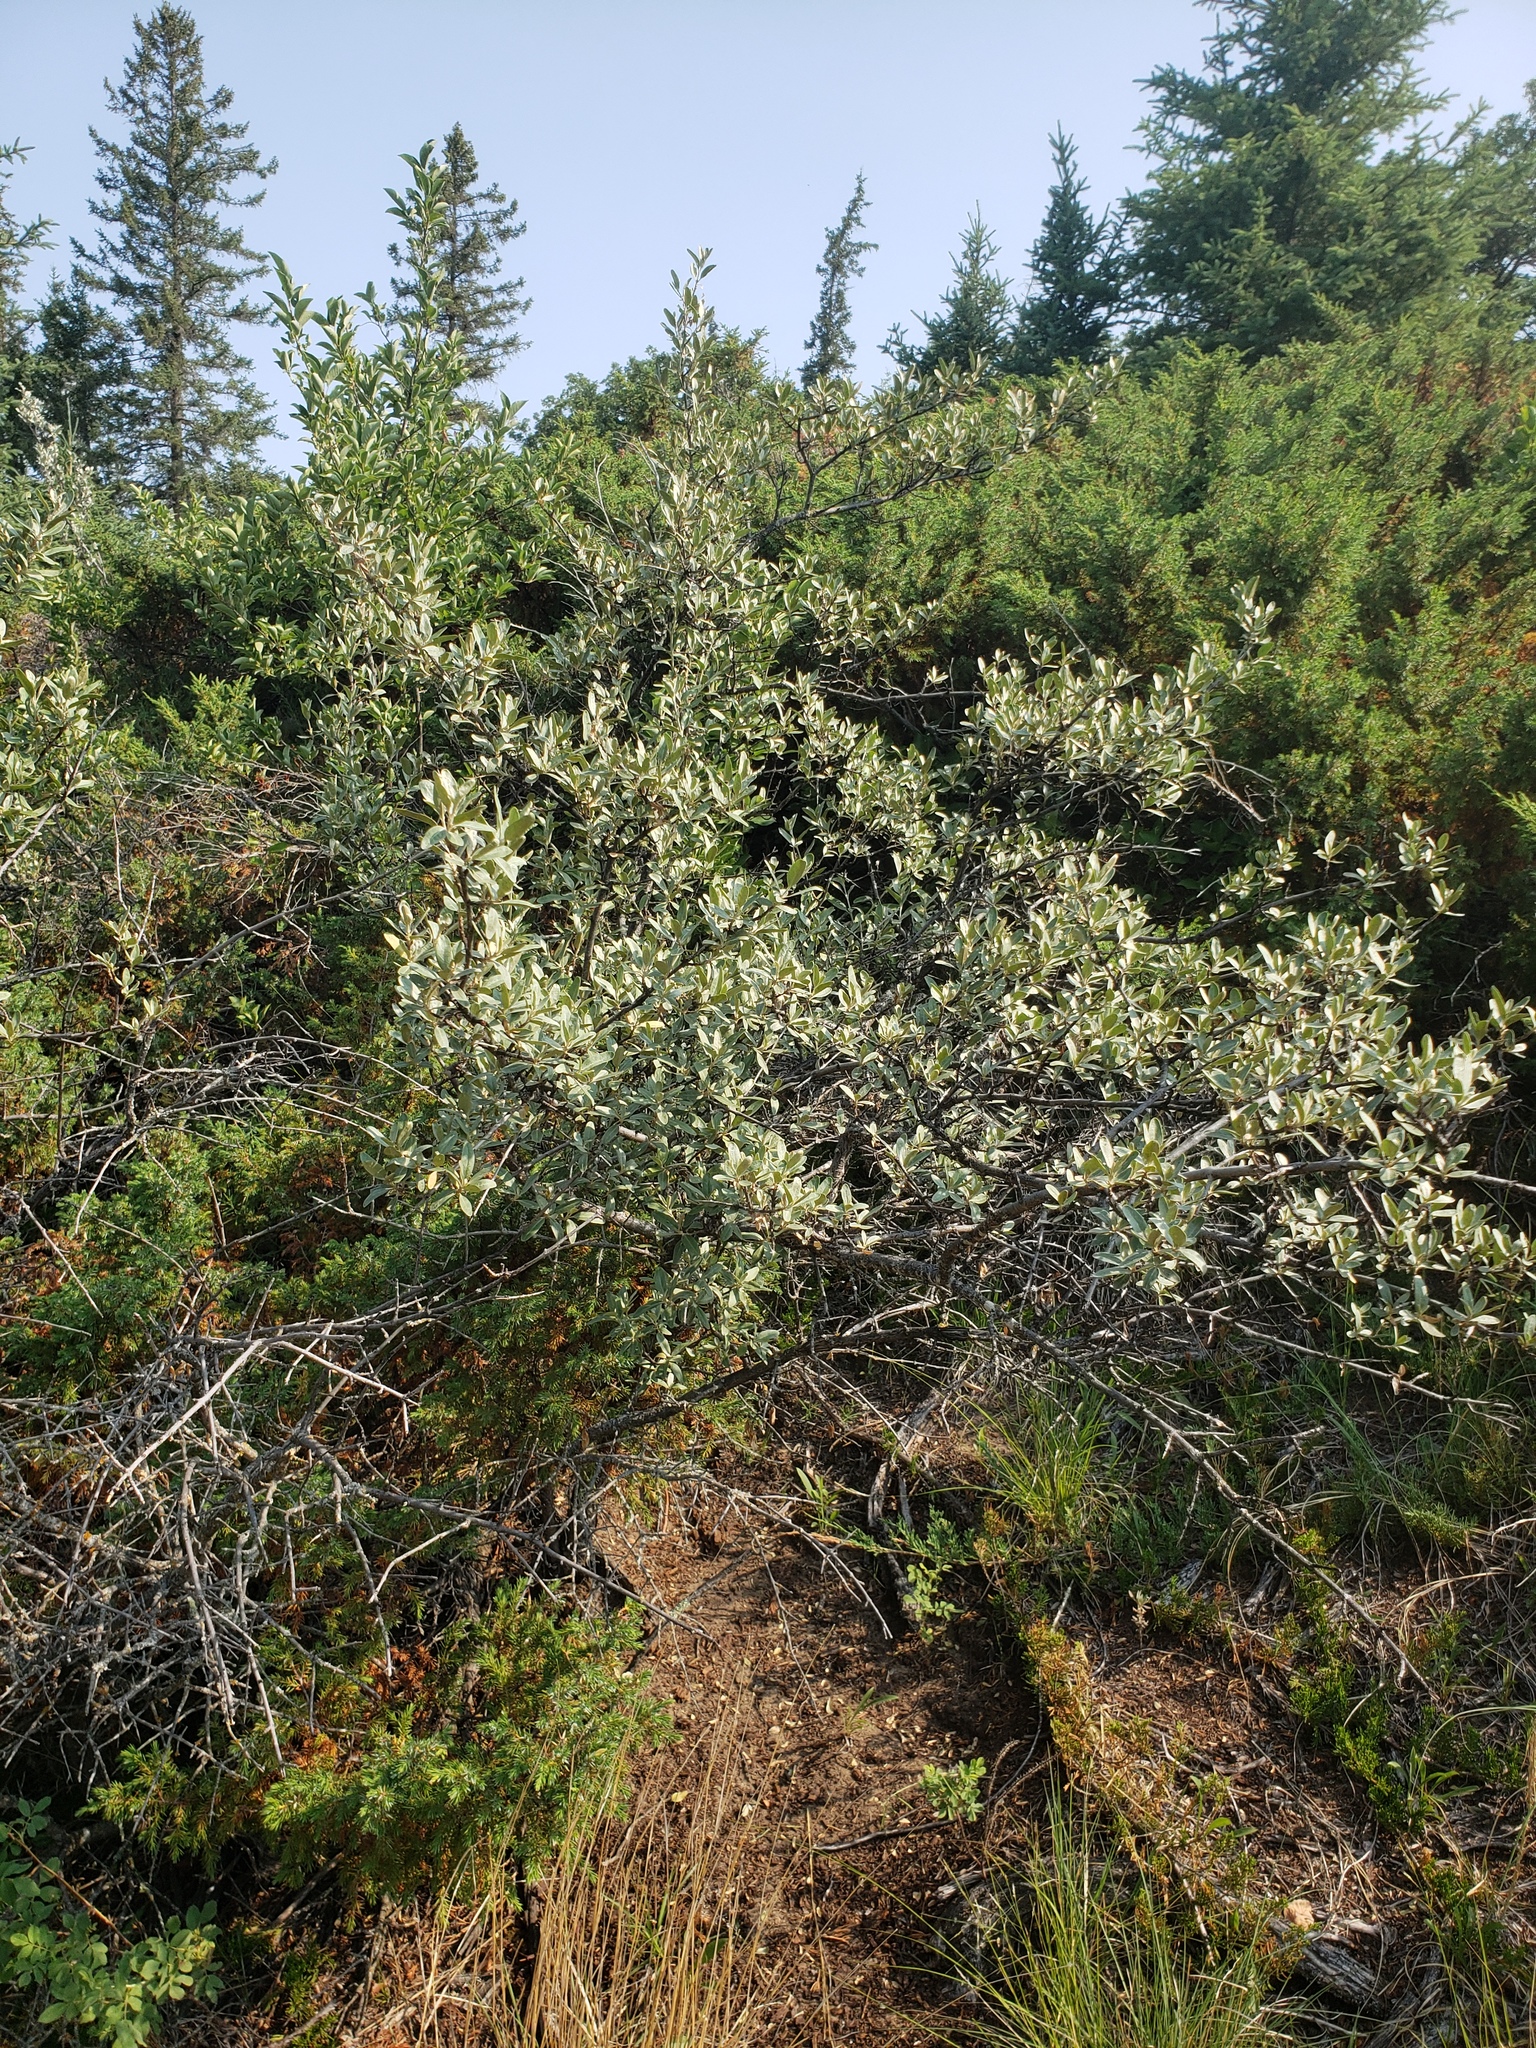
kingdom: Plantae
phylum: Tracheophyta
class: Magnoliopsida
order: Rosales
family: Elaeagnaceae
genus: Shepherdia
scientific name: Shepherdia argentea
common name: Silver buffaloberry
